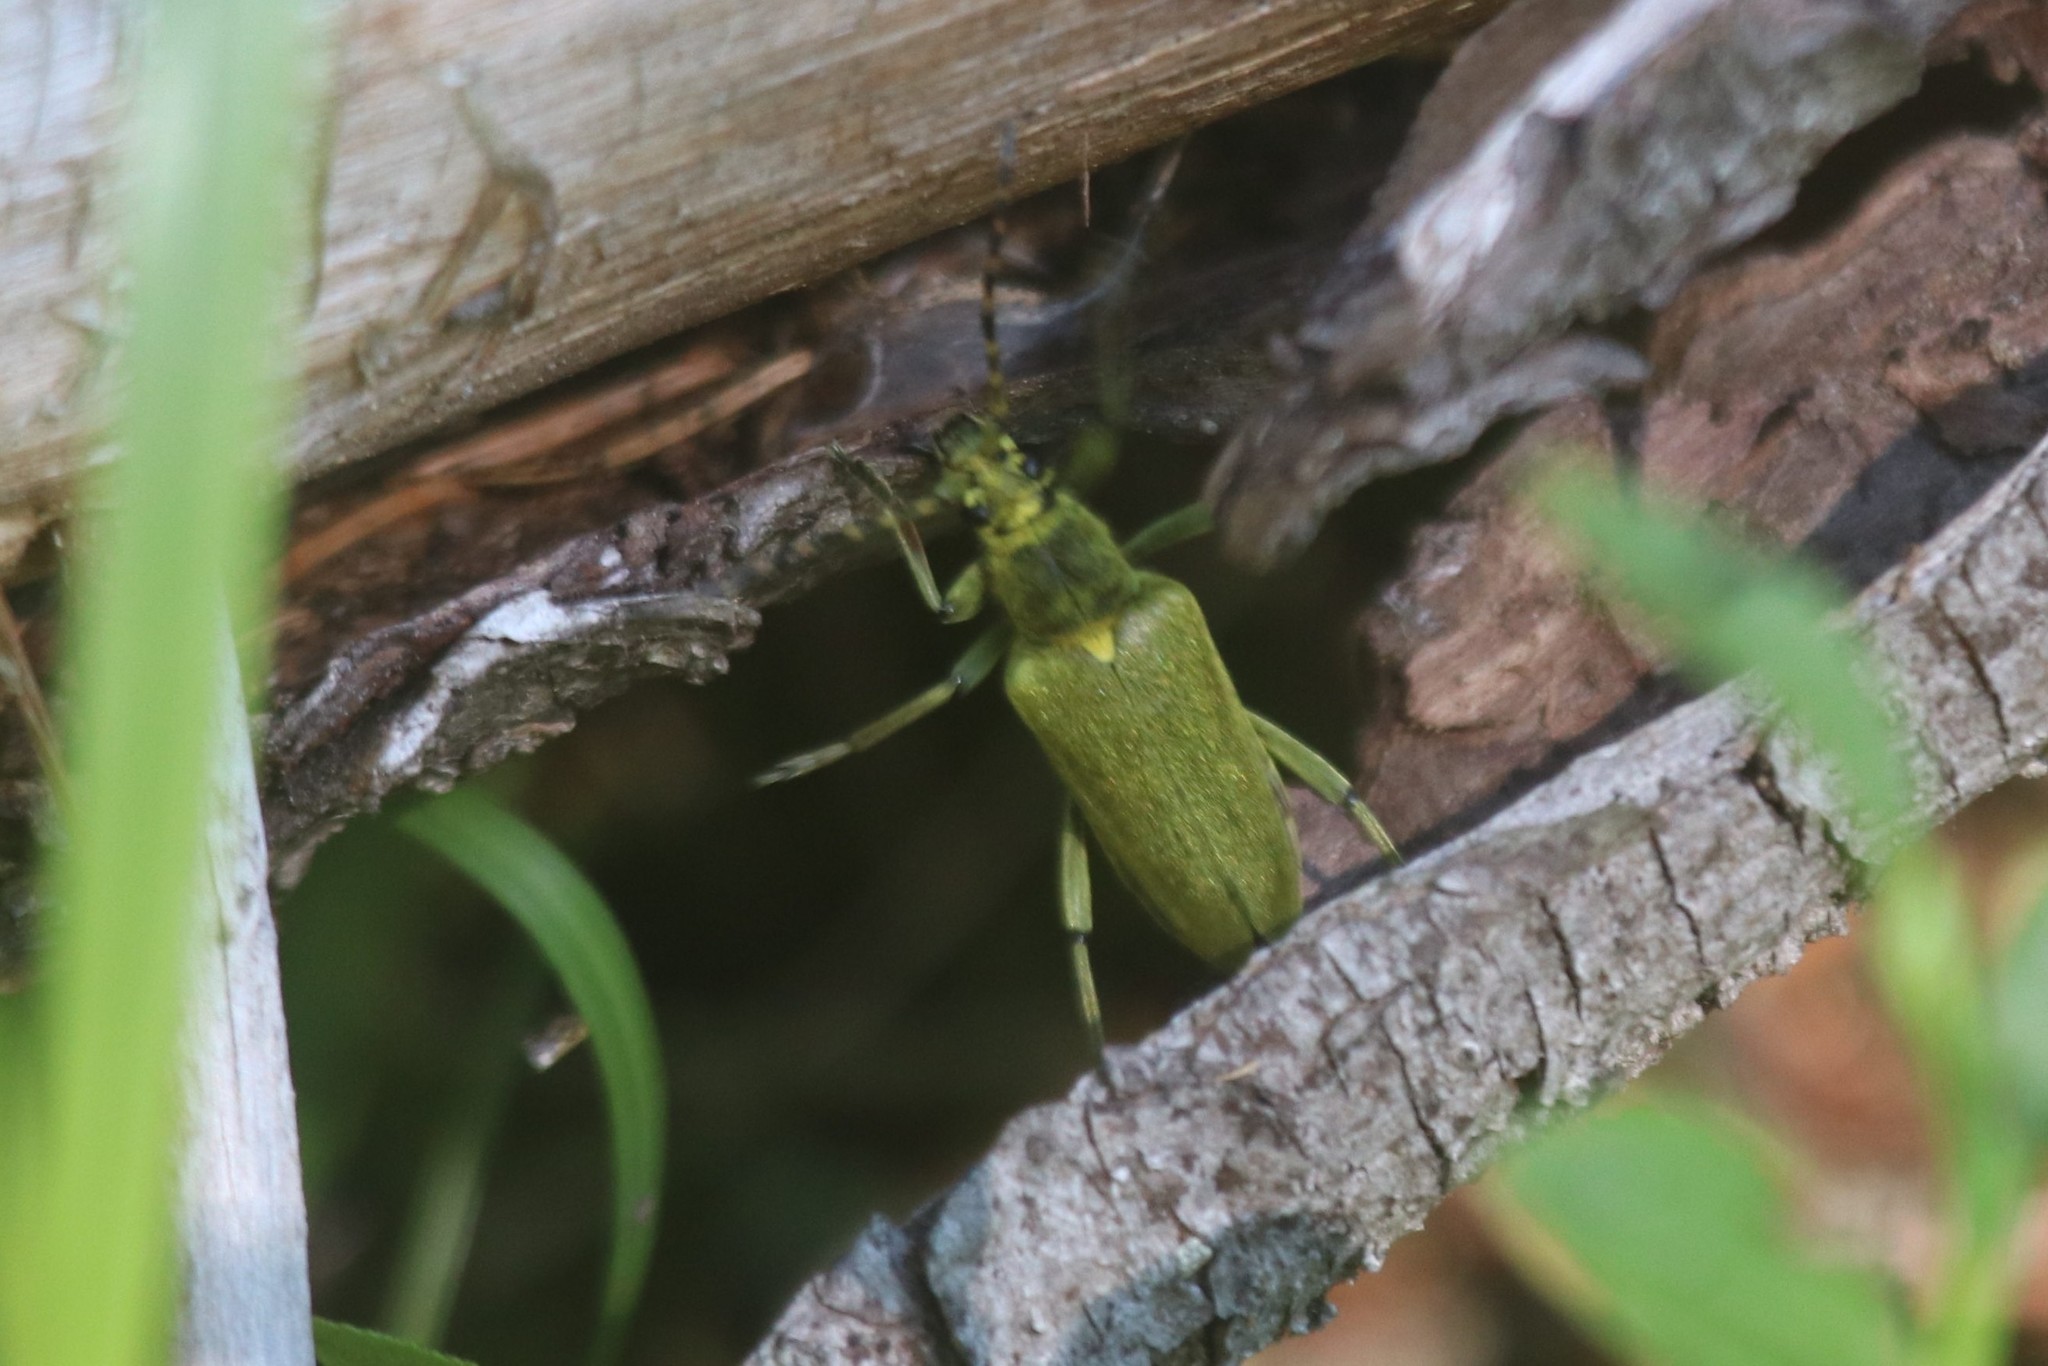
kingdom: Animalia
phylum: Arthropoda
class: Insecta
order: Coleoptera
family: Cerambycidae
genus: Lepturobosca
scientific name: Lepturobosca virens
